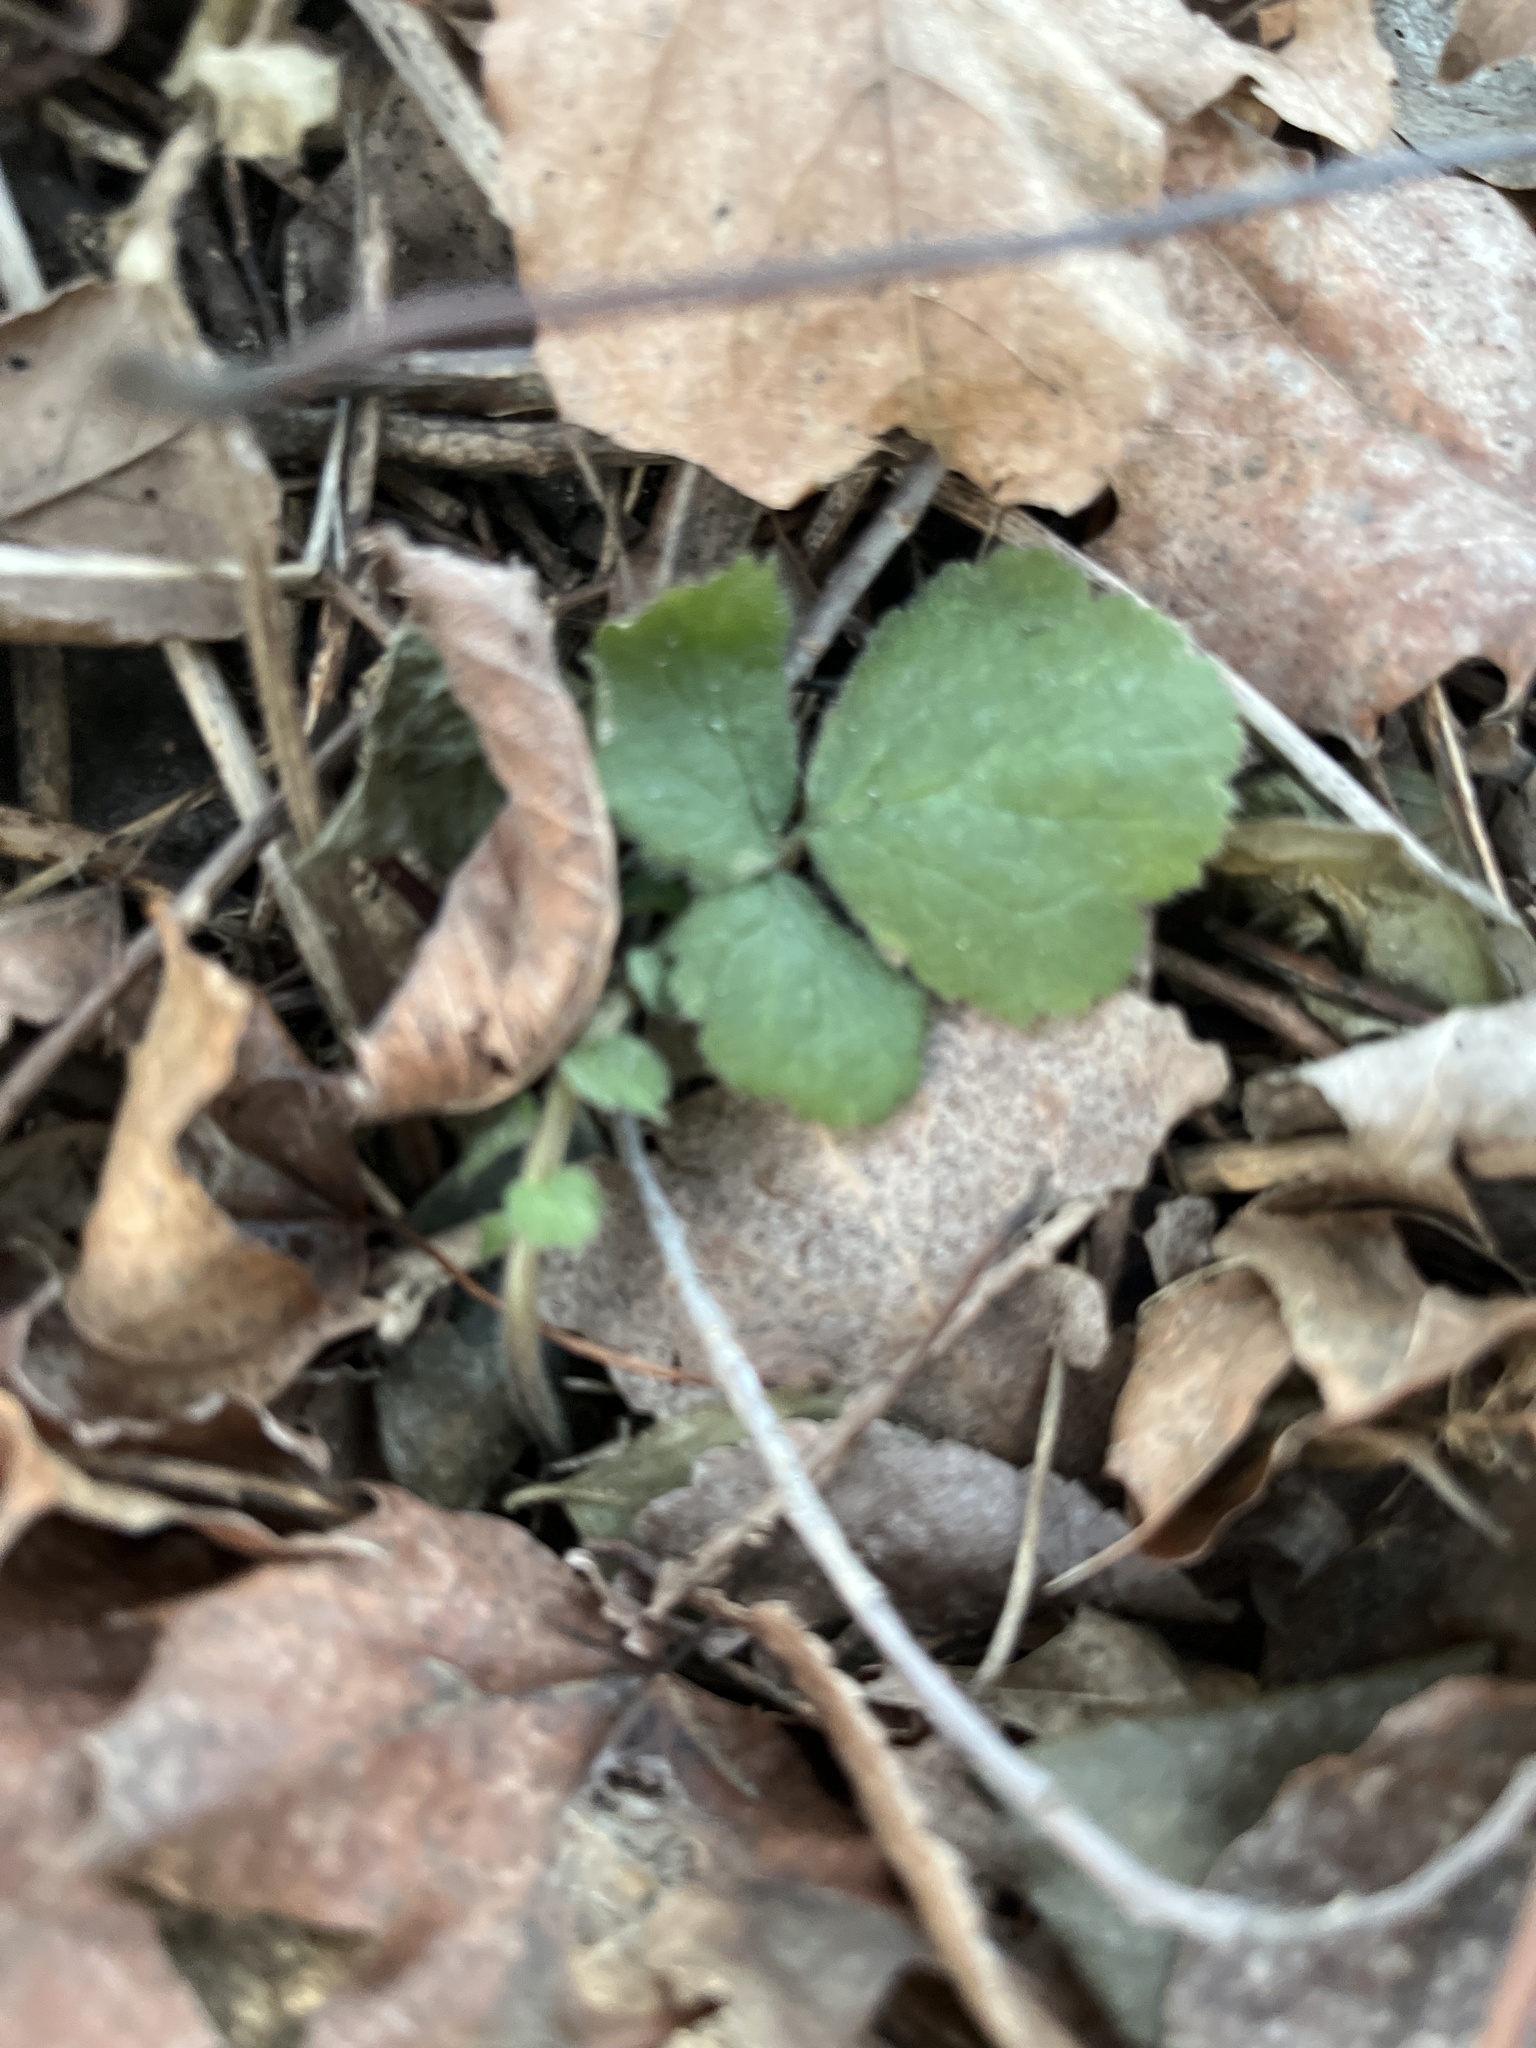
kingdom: Plantae
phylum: Tracheophyta
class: Magnoliopsida
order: Rosales
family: Rosaceae
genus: Geum
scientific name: Geum canadense
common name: White avens
